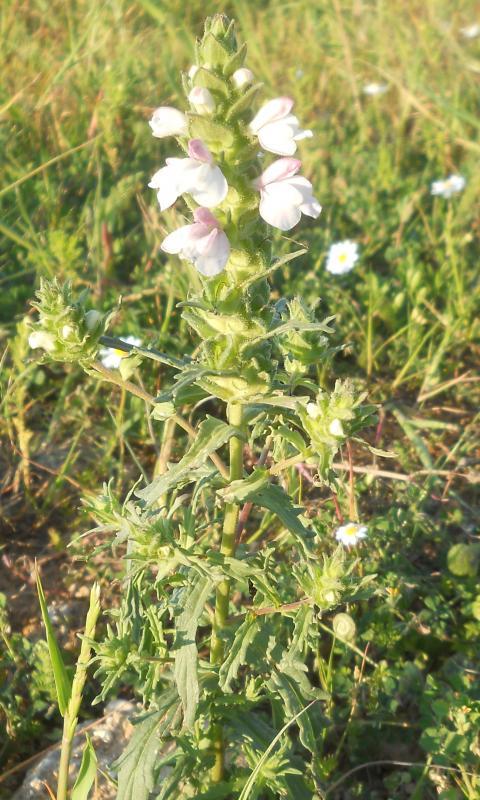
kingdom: Plantae
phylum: Tracheophyta
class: Magnoliopsida
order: Lamiales
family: Orobanchaceae
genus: Bellardia
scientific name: Bellardia trixago
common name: Mediterranean lineseed
